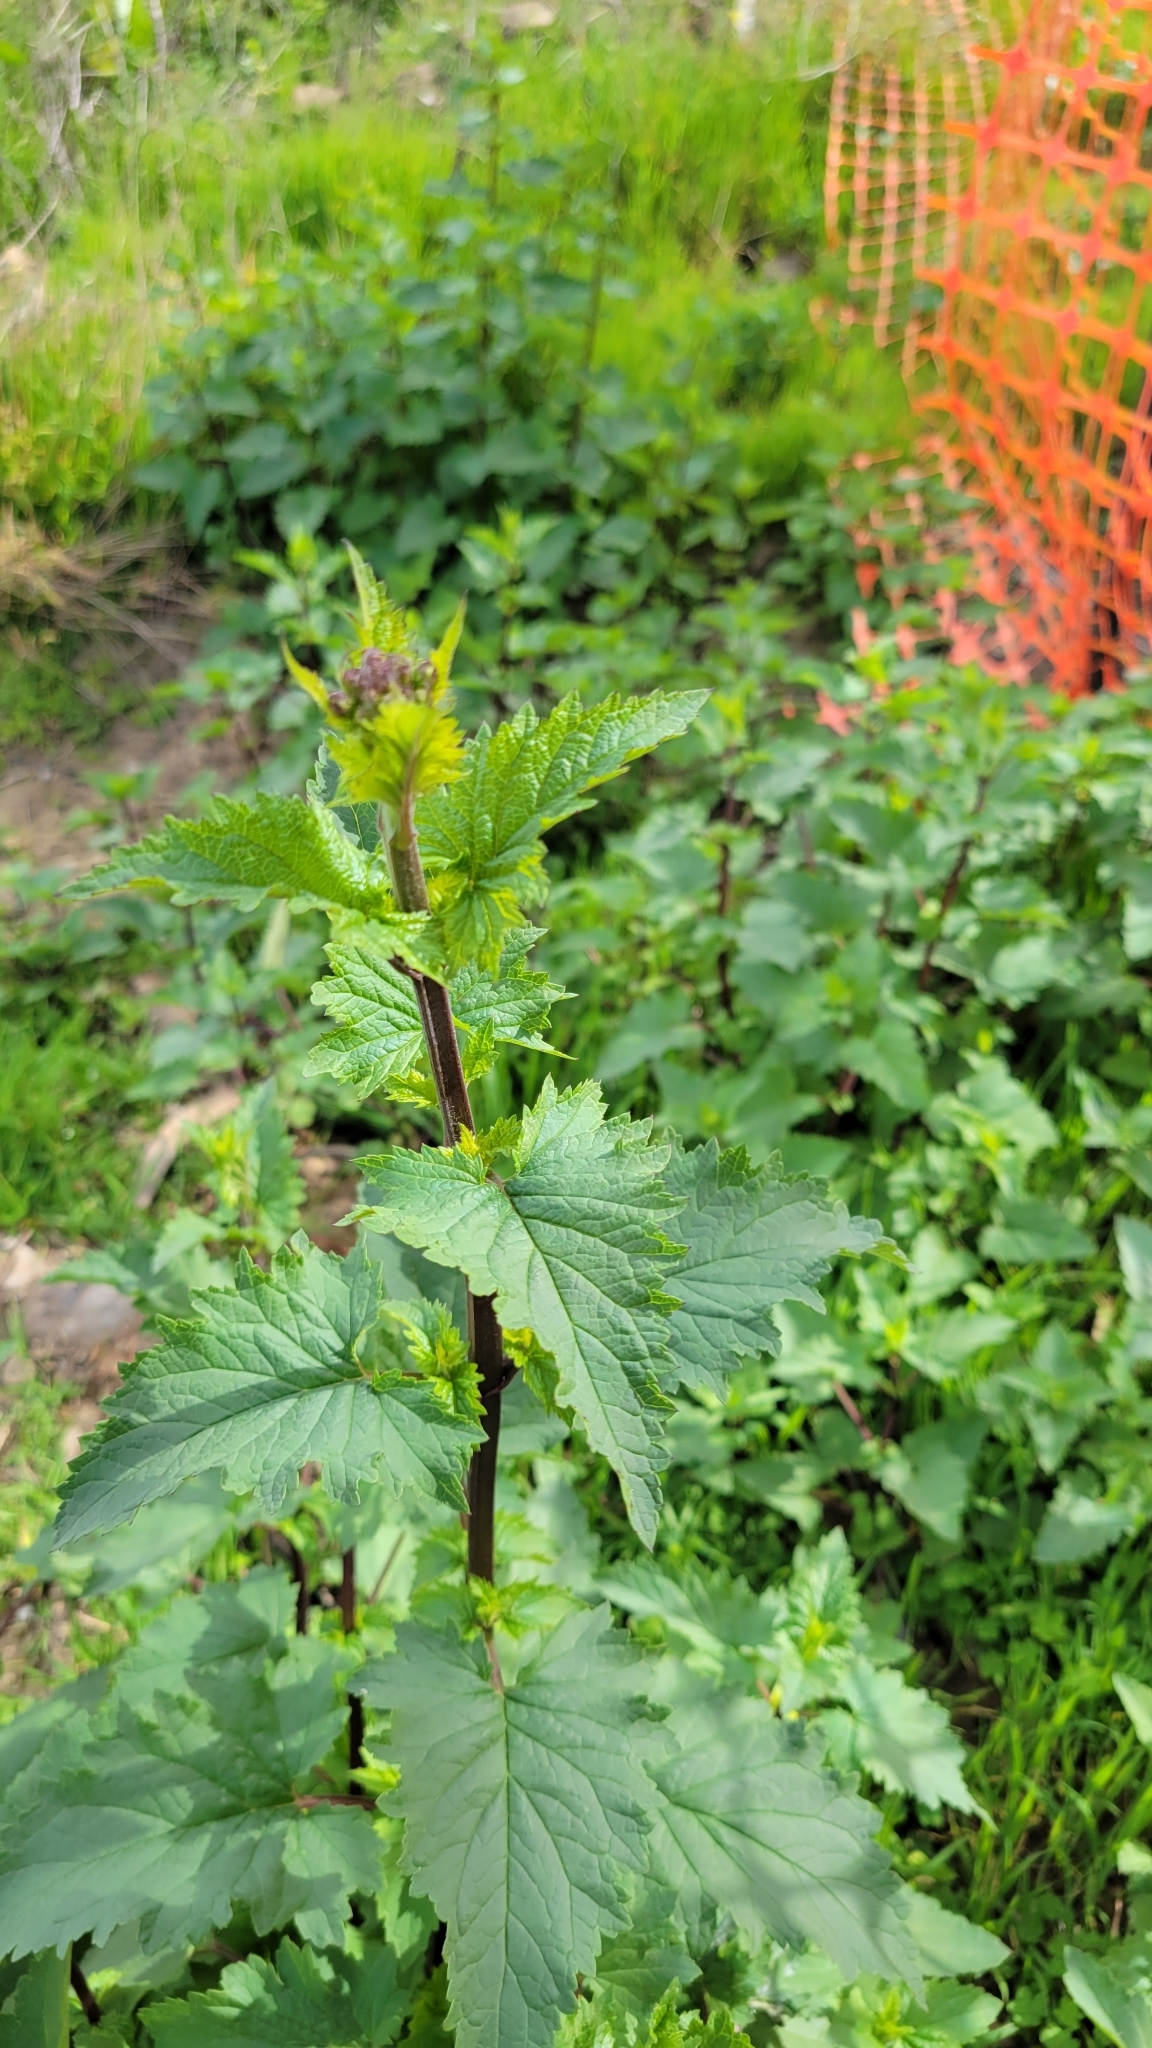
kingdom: Plantae
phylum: Tracheophyta
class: Magnoliopsida
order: Lamiales
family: Scrophulariaceae
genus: Scrophularia
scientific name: Scrophularia californica
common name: California figwort
